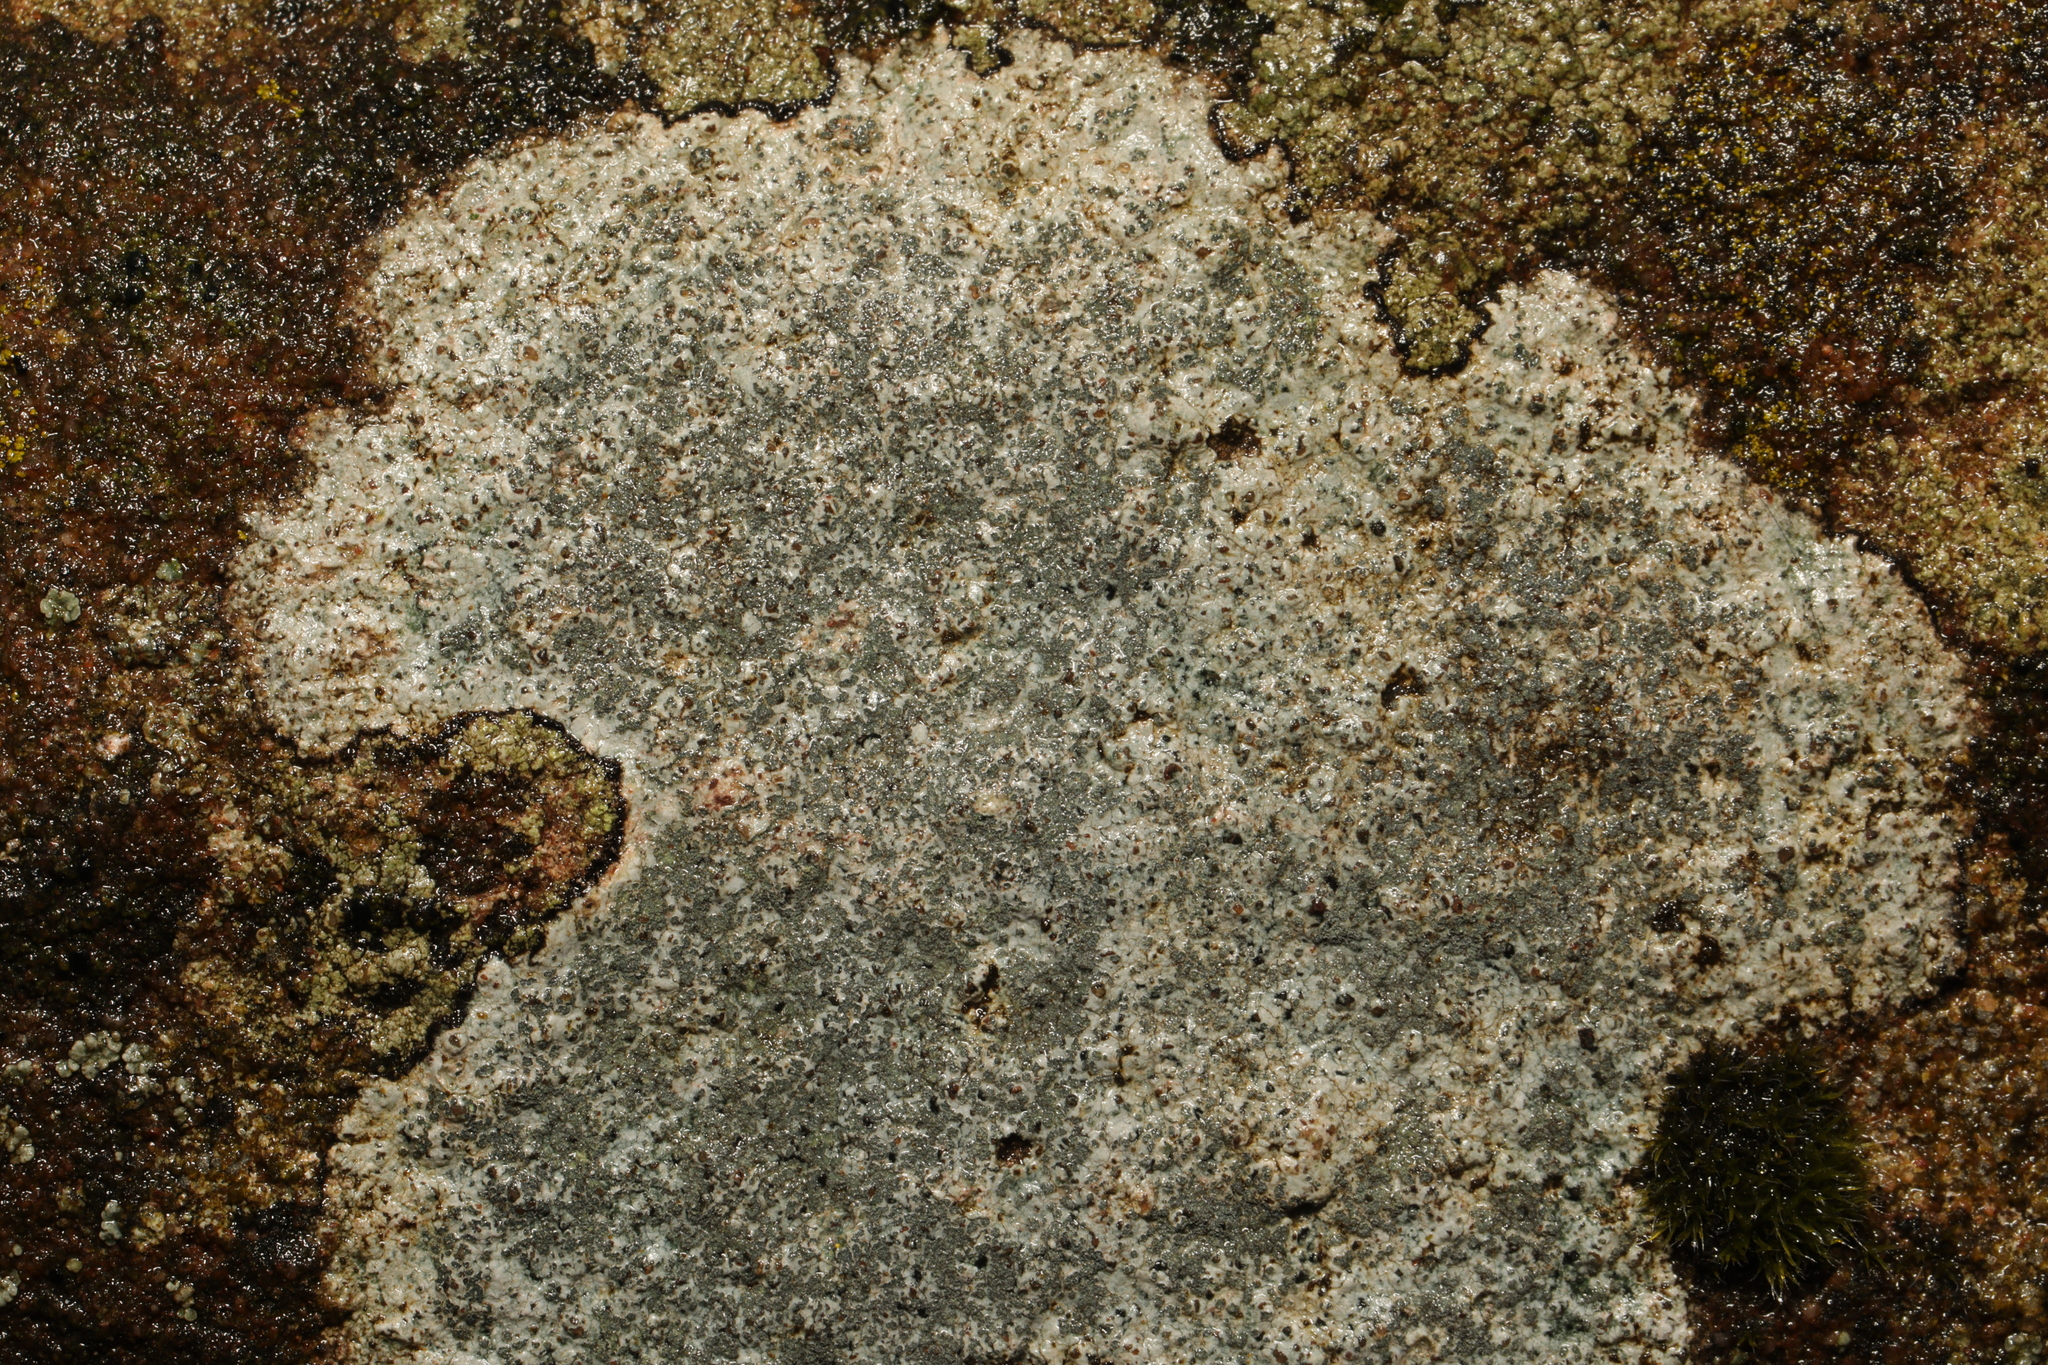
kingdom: Fungi
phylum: Ascomycota
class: Lecanoromycetes
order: Lecideales
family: Lecideaceae
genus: Porpidia
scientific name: Porpidia tuberculosa
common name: Boulder lichen
